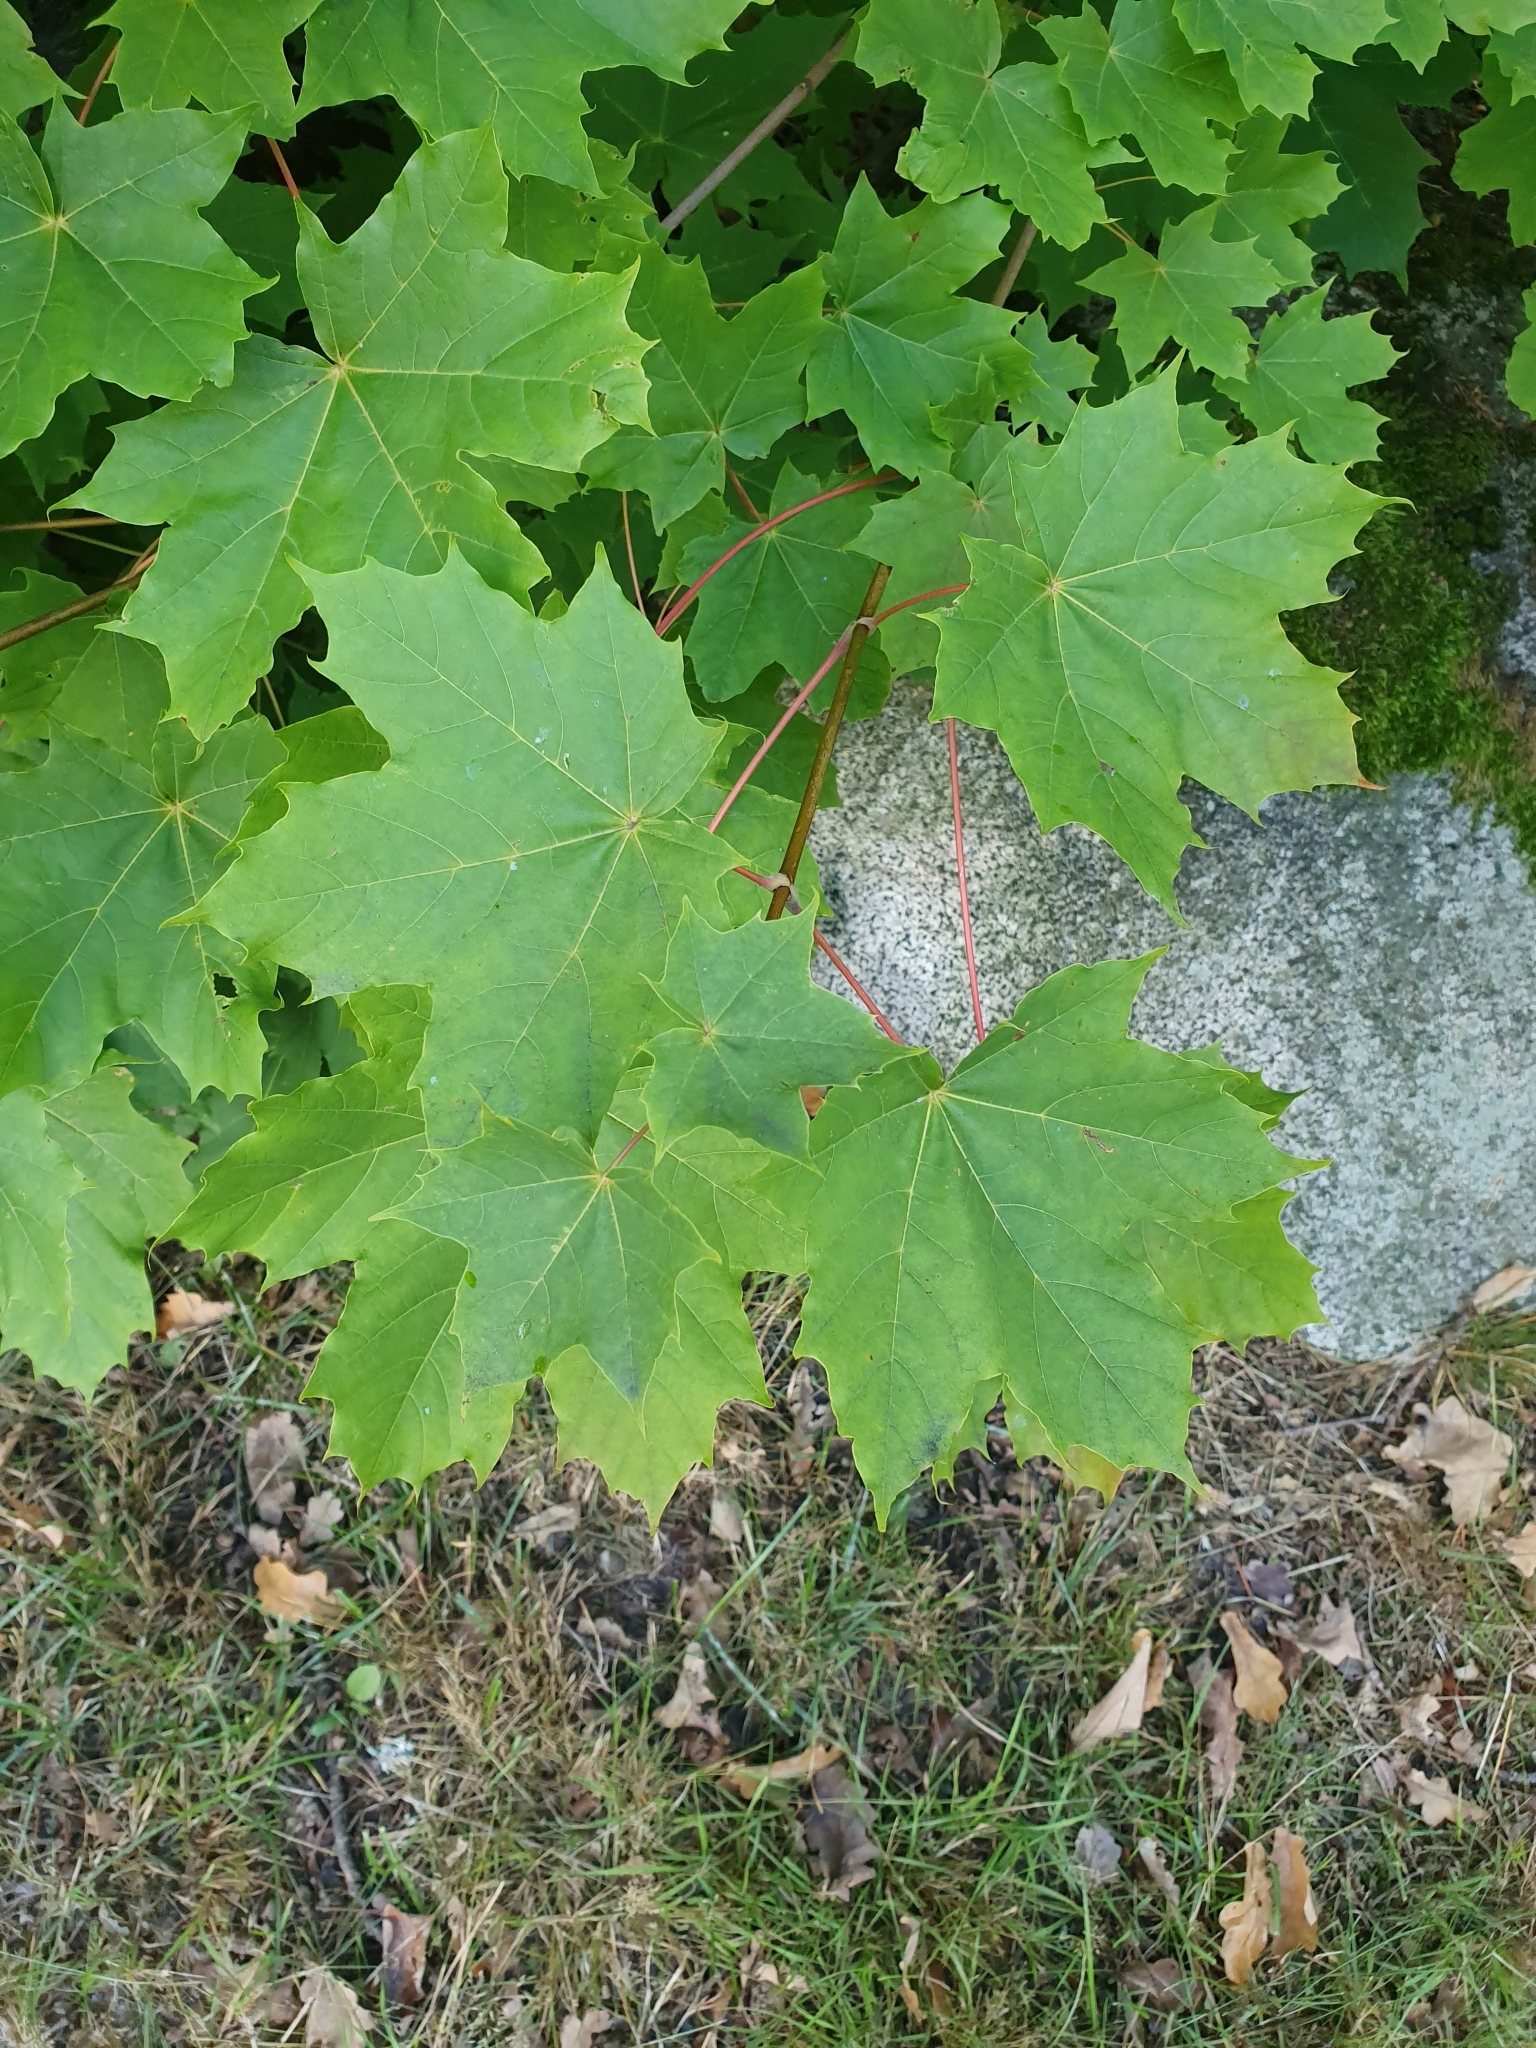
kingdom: Plantae
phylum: Tracheophyta
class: Magnoliopsida
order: Sapindales
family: Sapindaceae
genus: Acer
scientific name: Acer platanoides
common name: Norway maple
